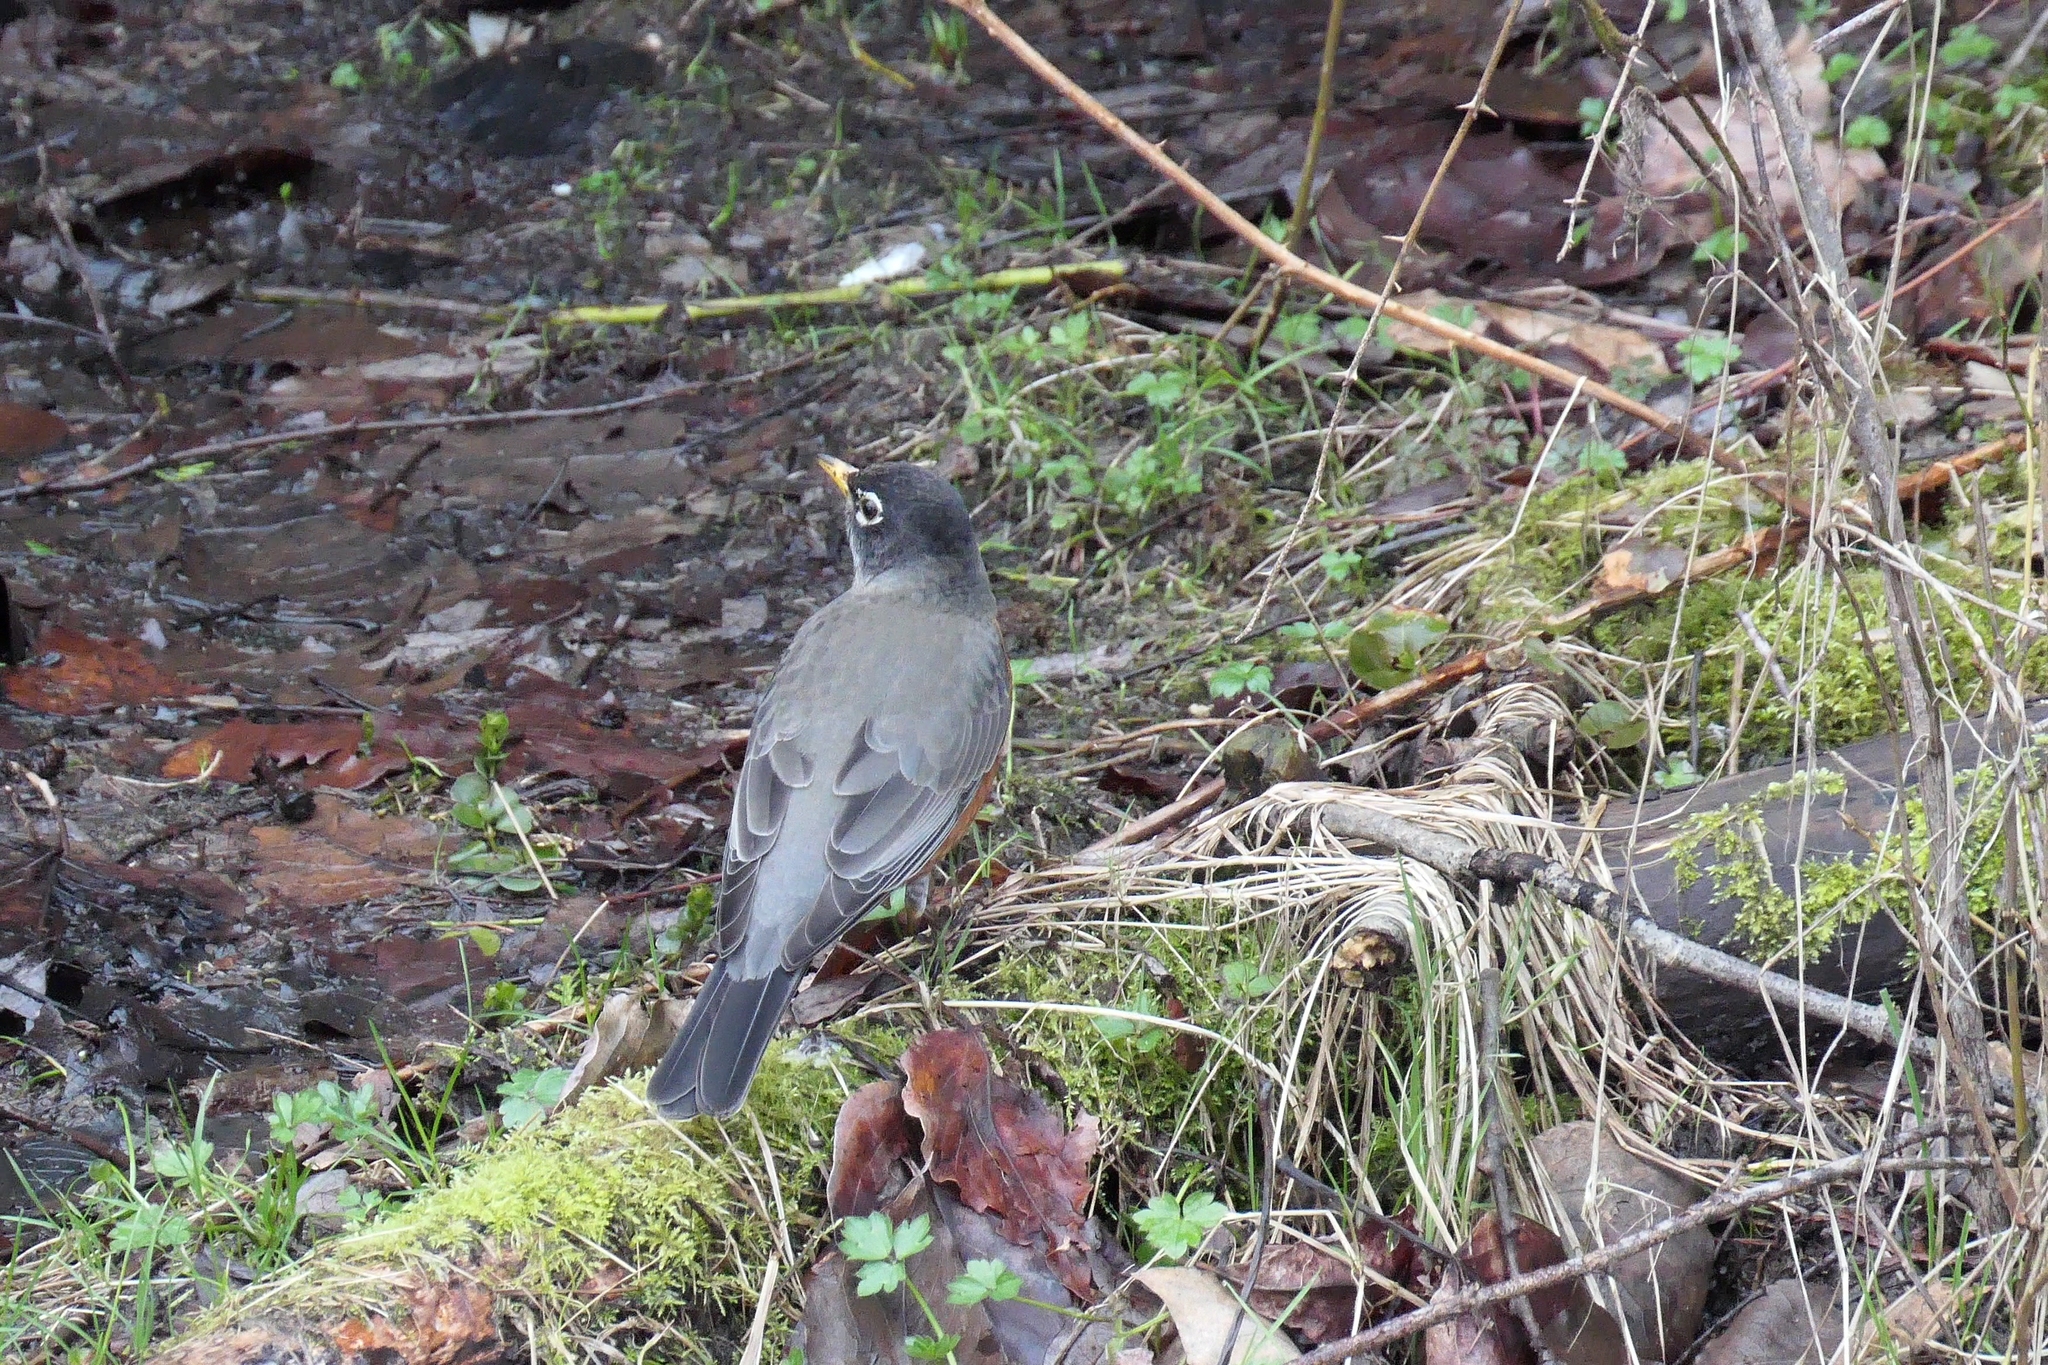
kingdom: Animalia
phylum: Chordata
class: Aves
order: Passeriformes
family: Turdidae
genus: Turdus
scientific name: Turdus migratorius
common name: American robin
